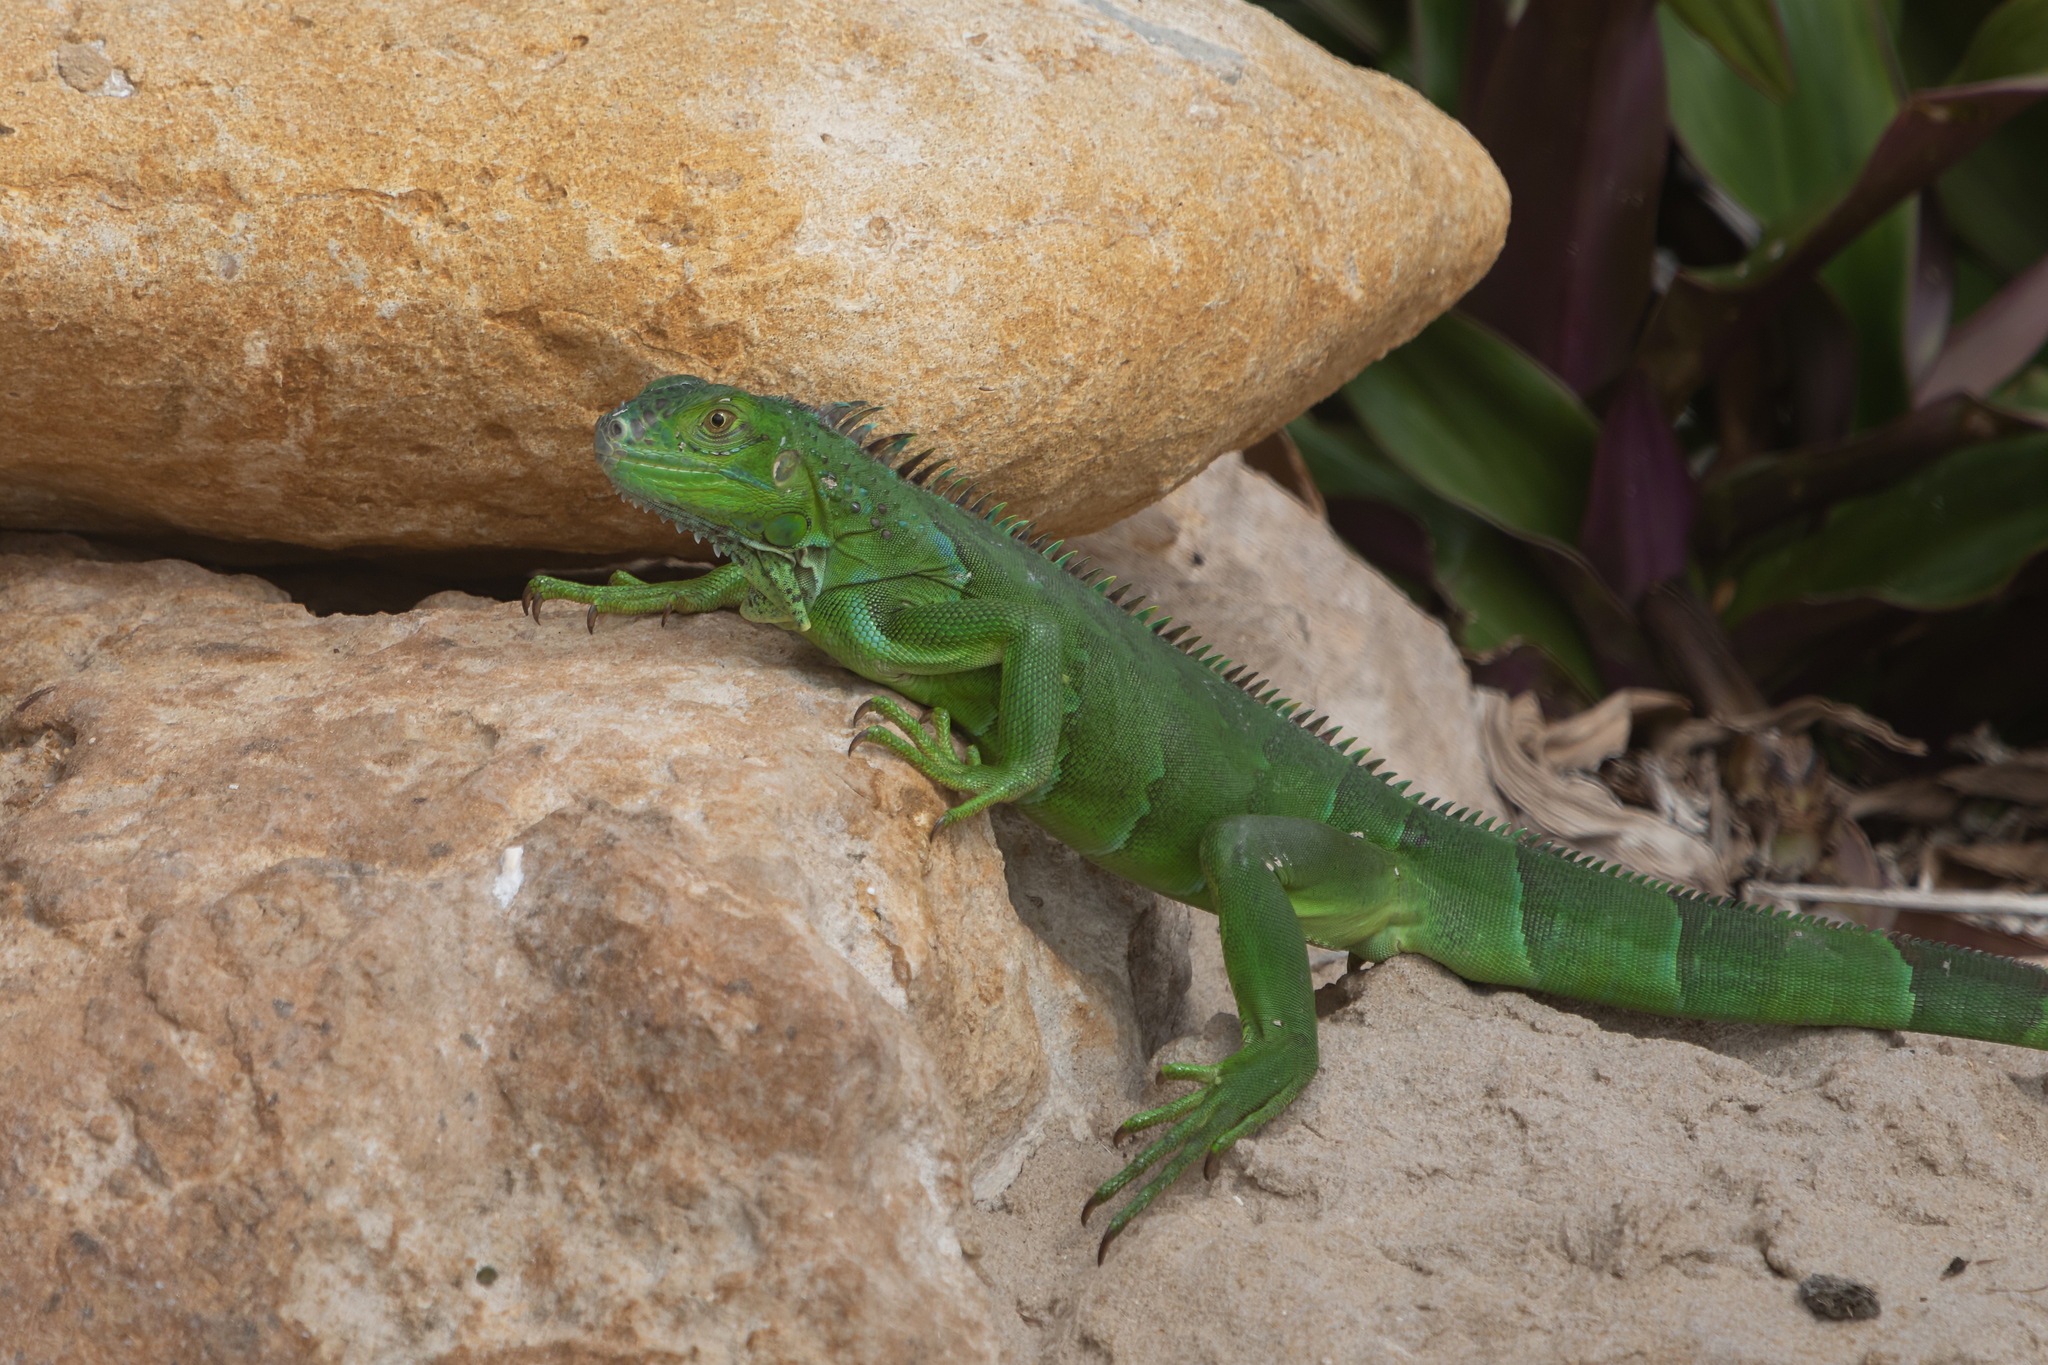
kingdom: Animalia
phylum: Chordata
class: Squamata
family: Iguanidae
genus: Iguana
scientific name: Iguana iguana
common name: Green iguana
